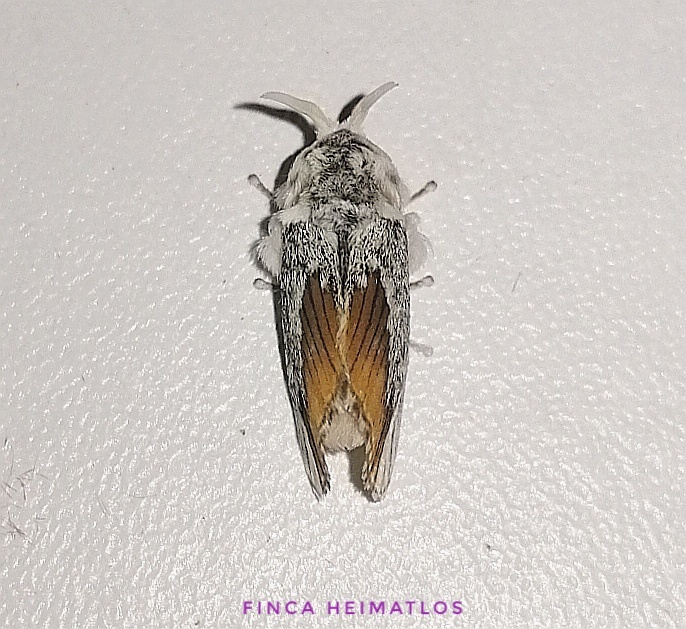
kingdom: Animalia
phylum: Arthropoda
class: Insecta
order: Lepidoptera
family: Megalopygidae
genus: Mesoscia
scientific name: Mesoscia terminata
